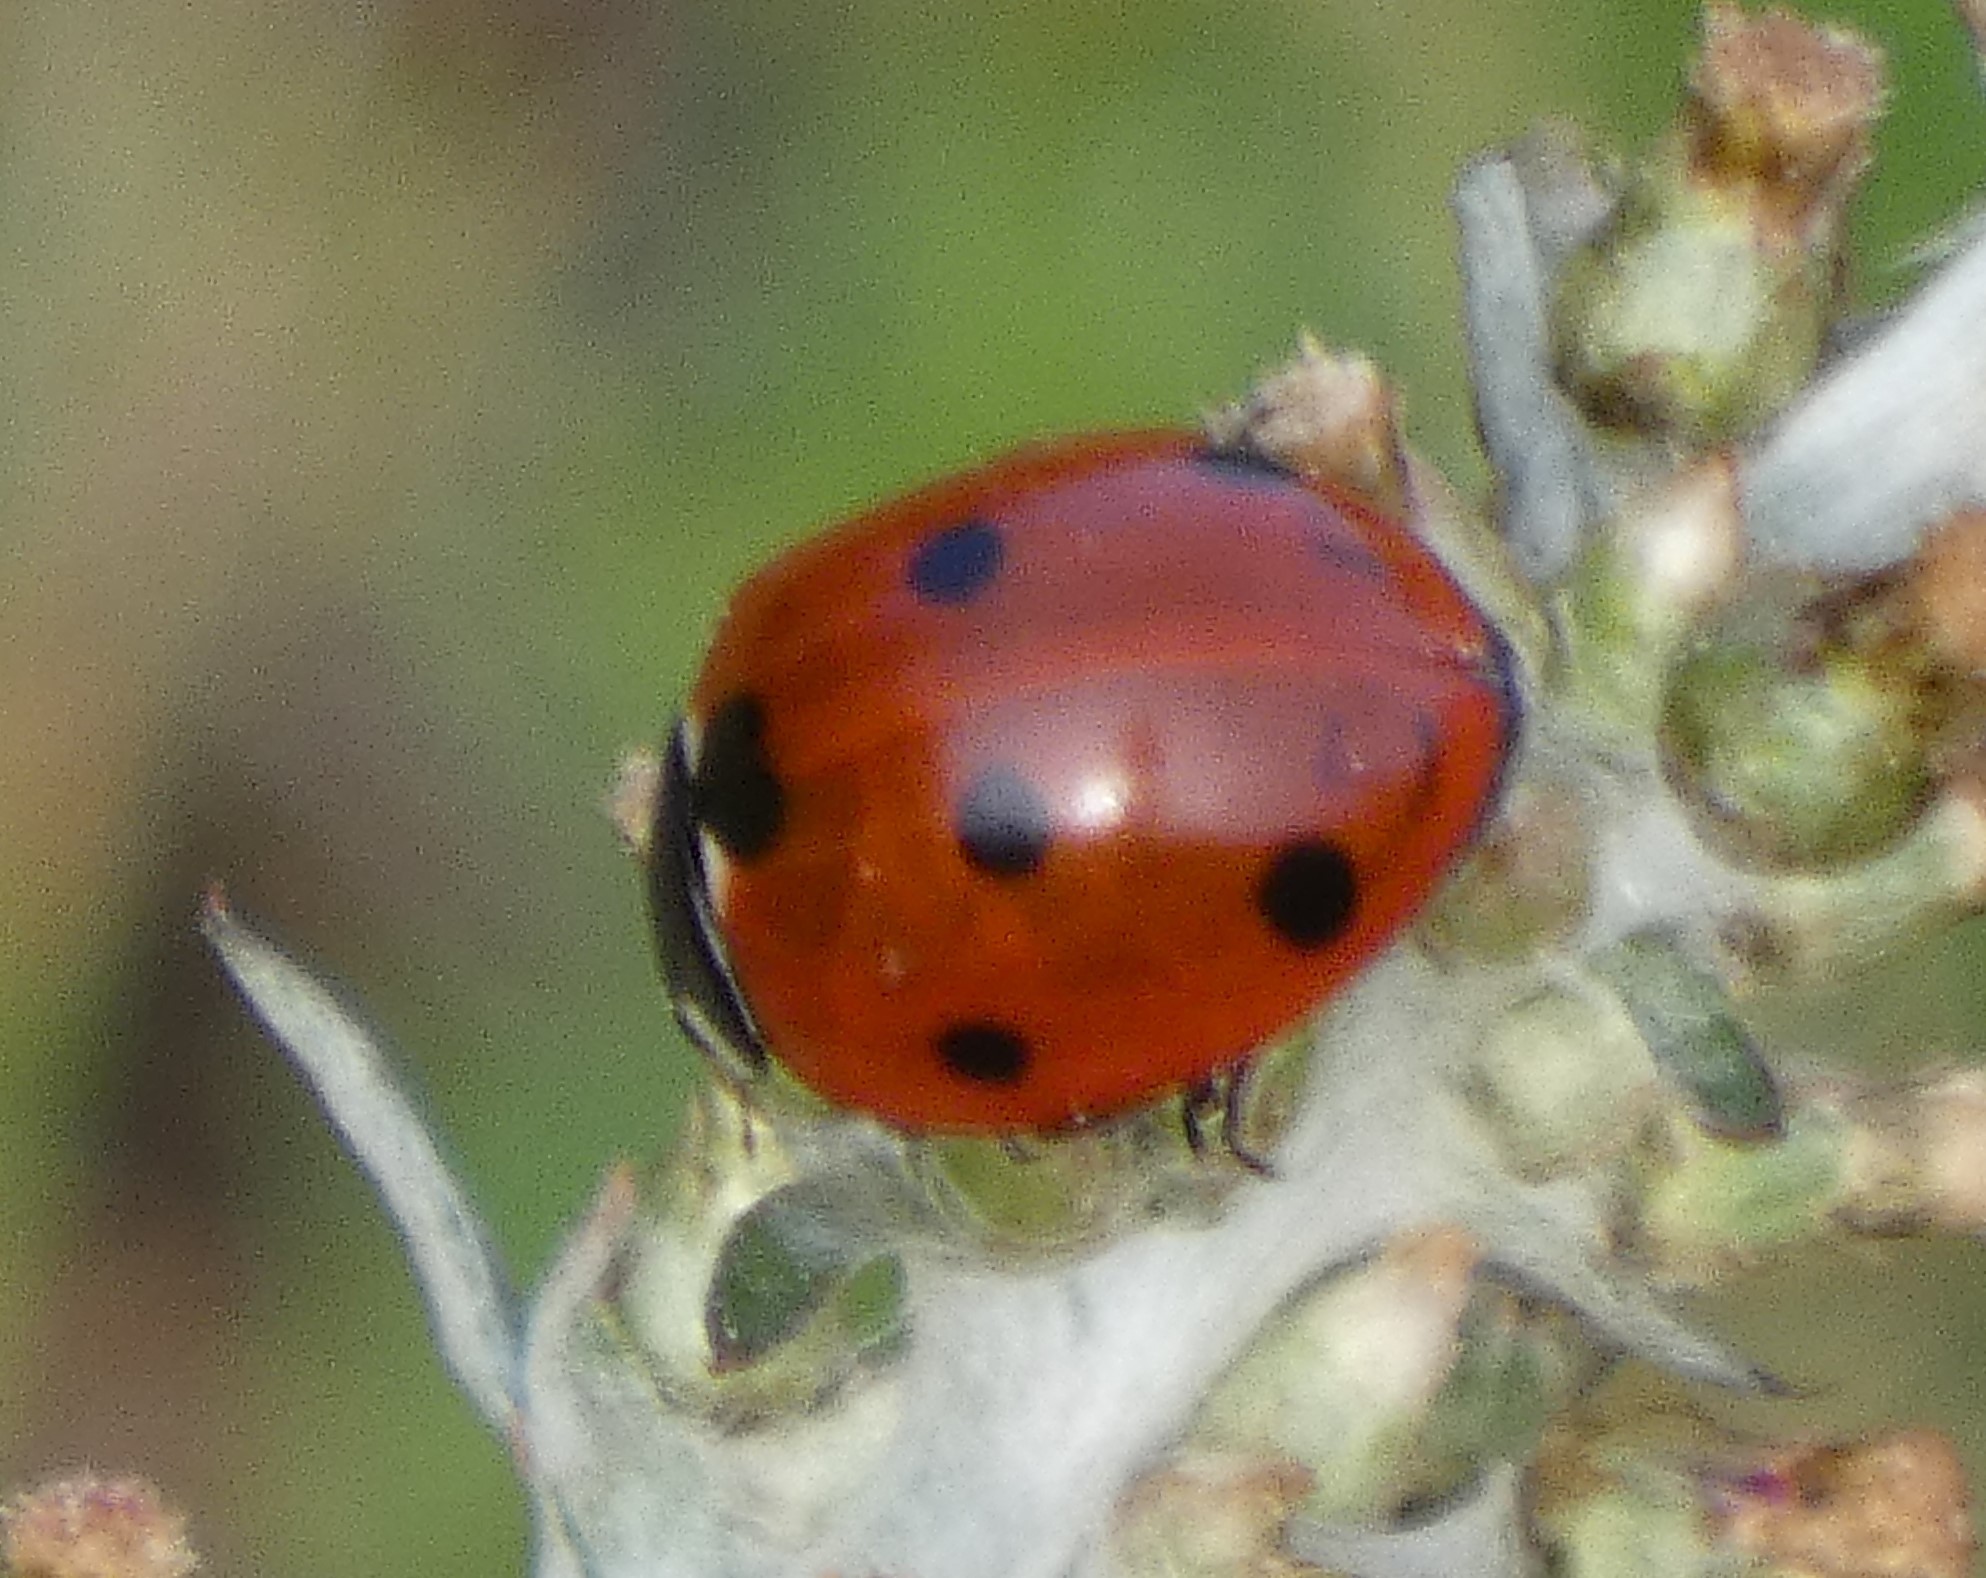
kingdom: Animalia
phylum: Arthropoda
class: Insecta
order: Coleoptera
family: Coccinellidae
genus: Coccinella
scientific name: Coccinella septempunctata
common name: Sevenspotted lady beetle
